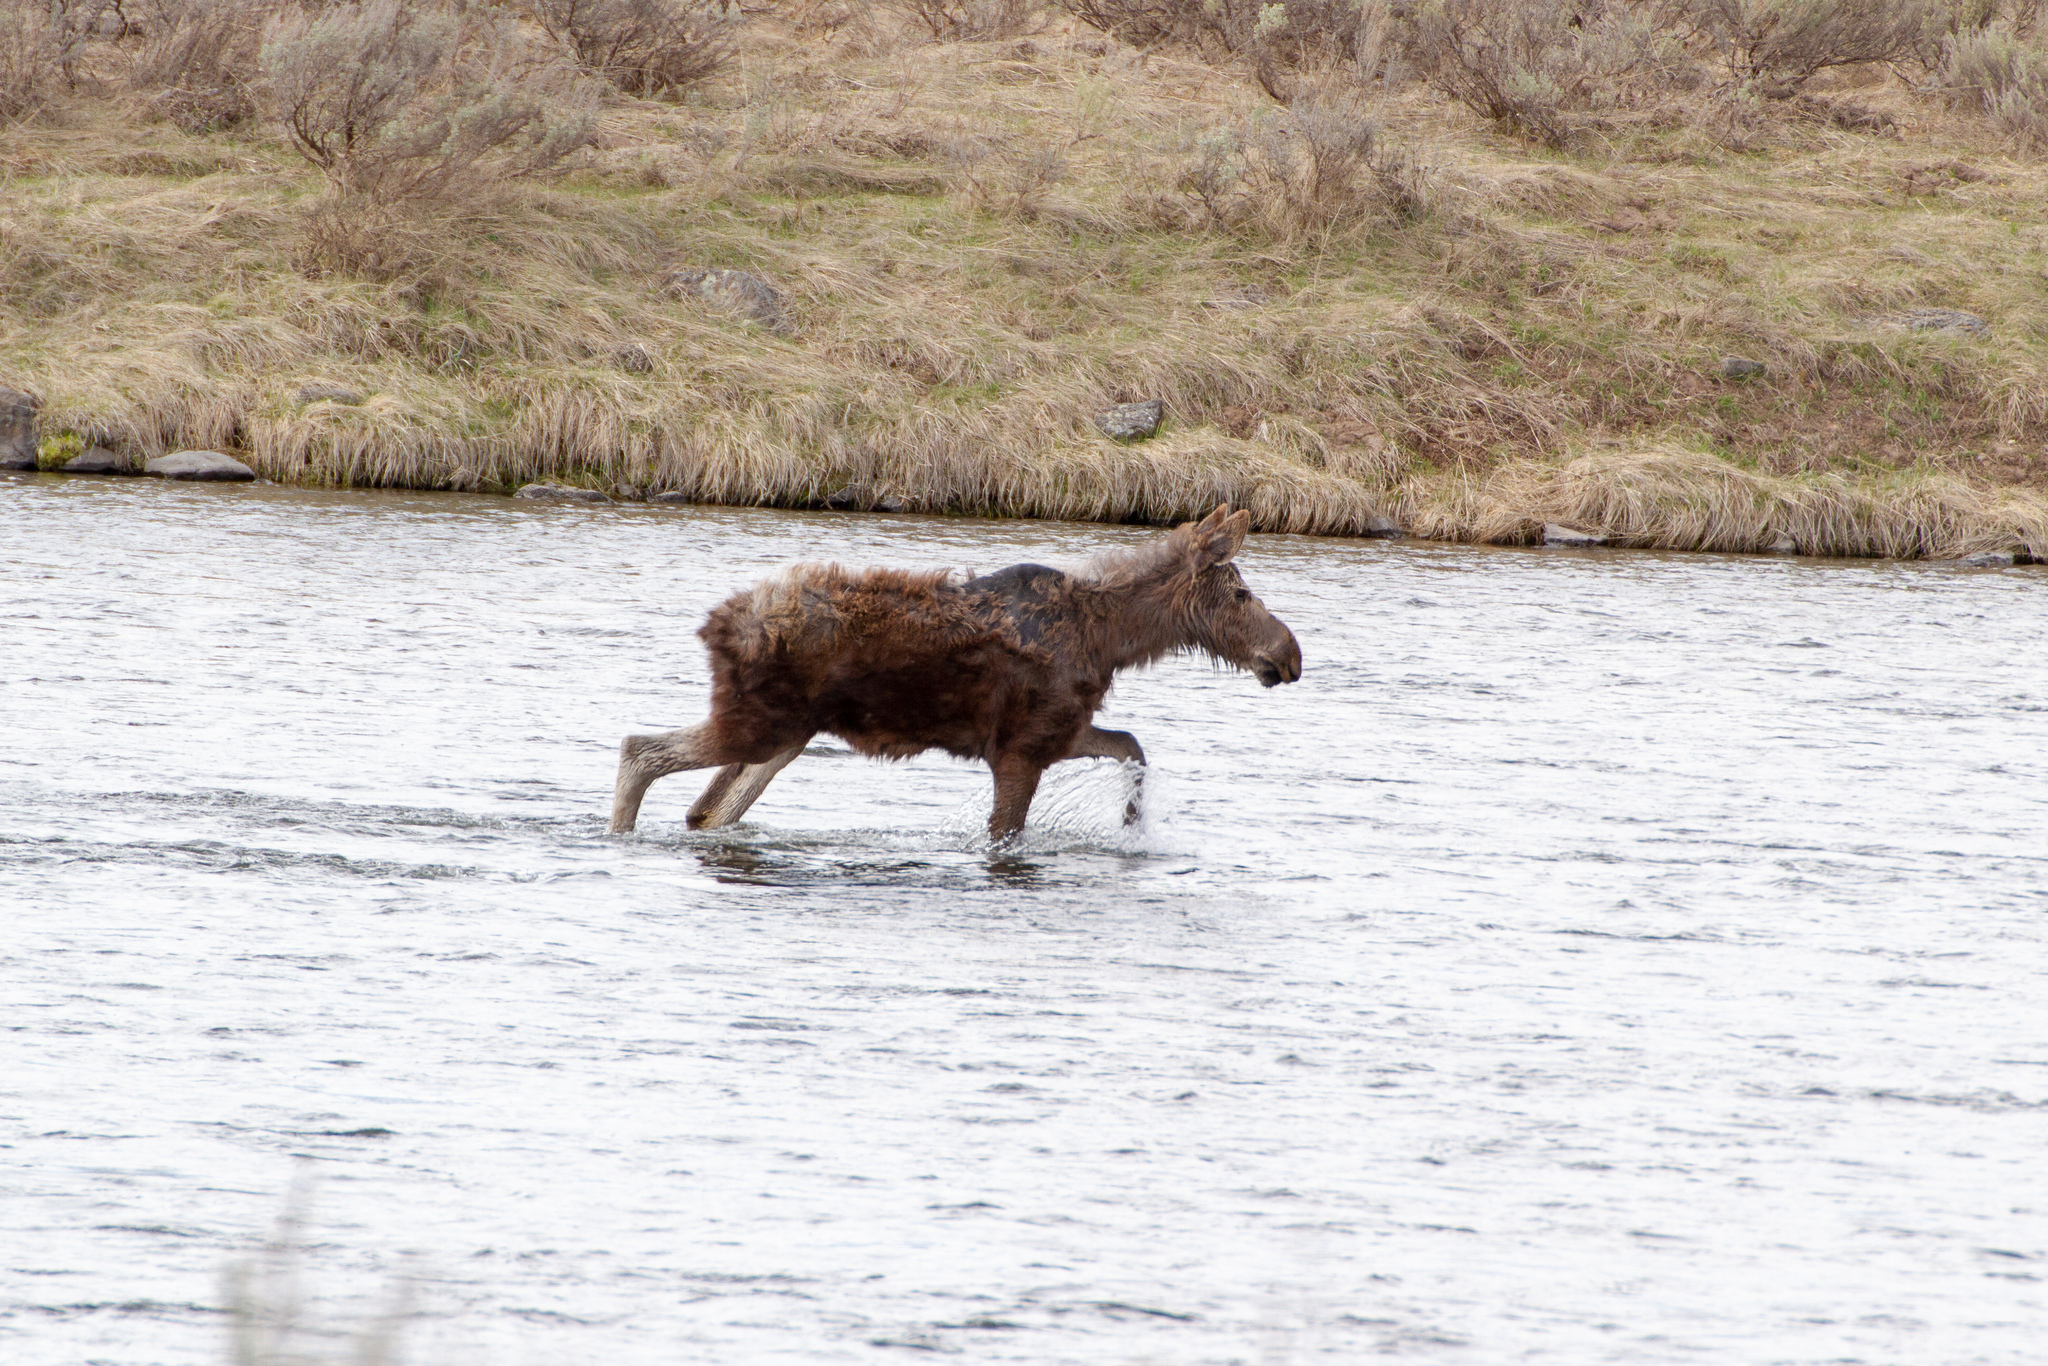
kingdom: Animalia
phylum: Chordata
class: Mammalia
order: Artiodactyla
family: Cervidae
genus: Alces
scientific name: Alces alces
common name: Moose
